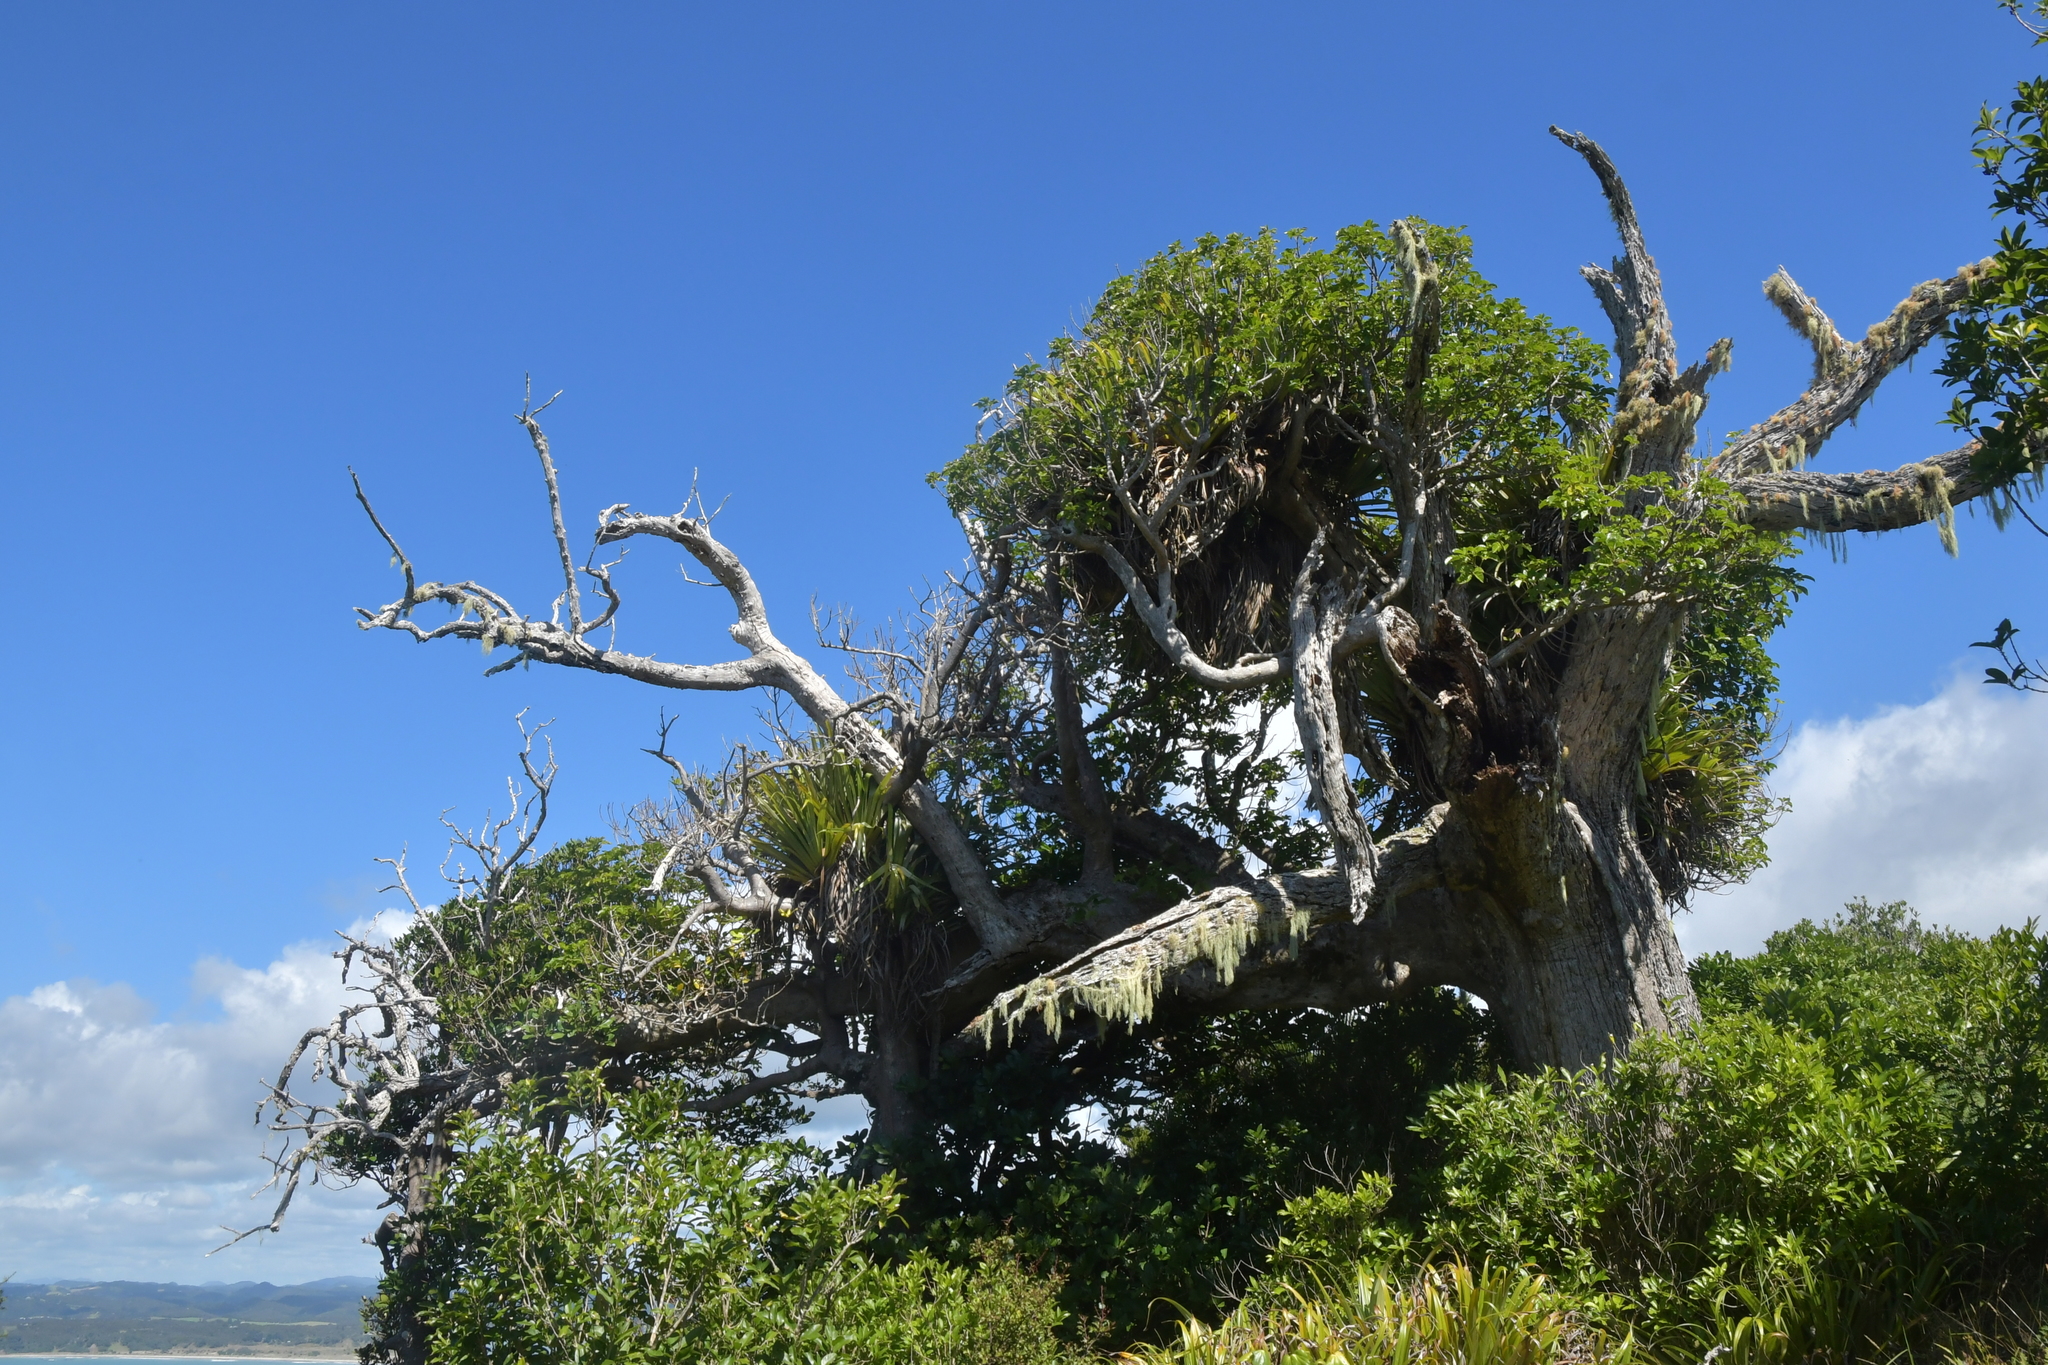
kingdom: Plantae
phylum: Tracheophyta
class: Magnoliopsida
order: Lamiales
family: Lamiaceae
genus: Vitex
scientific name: Vitex lucens
